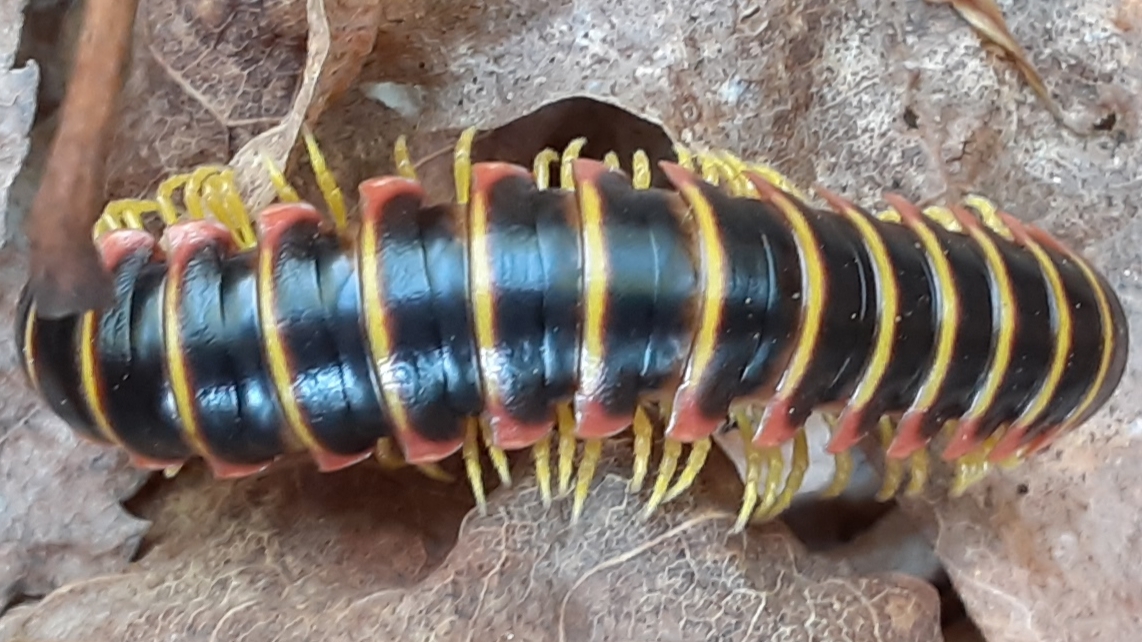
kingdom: Animalia
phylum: Arthropoda
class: Diplopoda
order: Polydesmida
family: Xystodesmidae
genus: Apheloria
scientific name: Apheloria virginiensis
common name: Black-and-gold flat millipede
